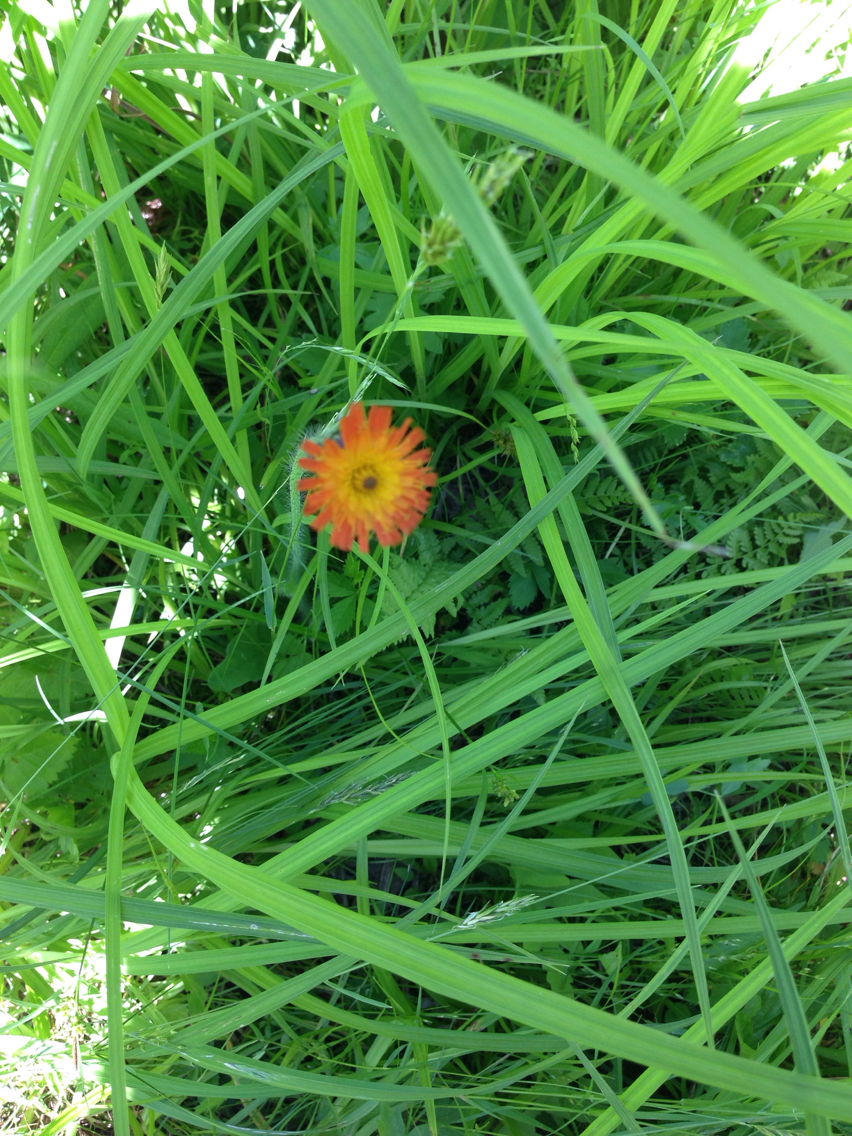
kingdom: Plantae
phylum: Tracheophyta
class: Magnoliopsida
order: Asterales
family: Asteraceae
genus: Pilosella
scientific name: Pilosella aurantiaca
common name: Fox-and-cubs
